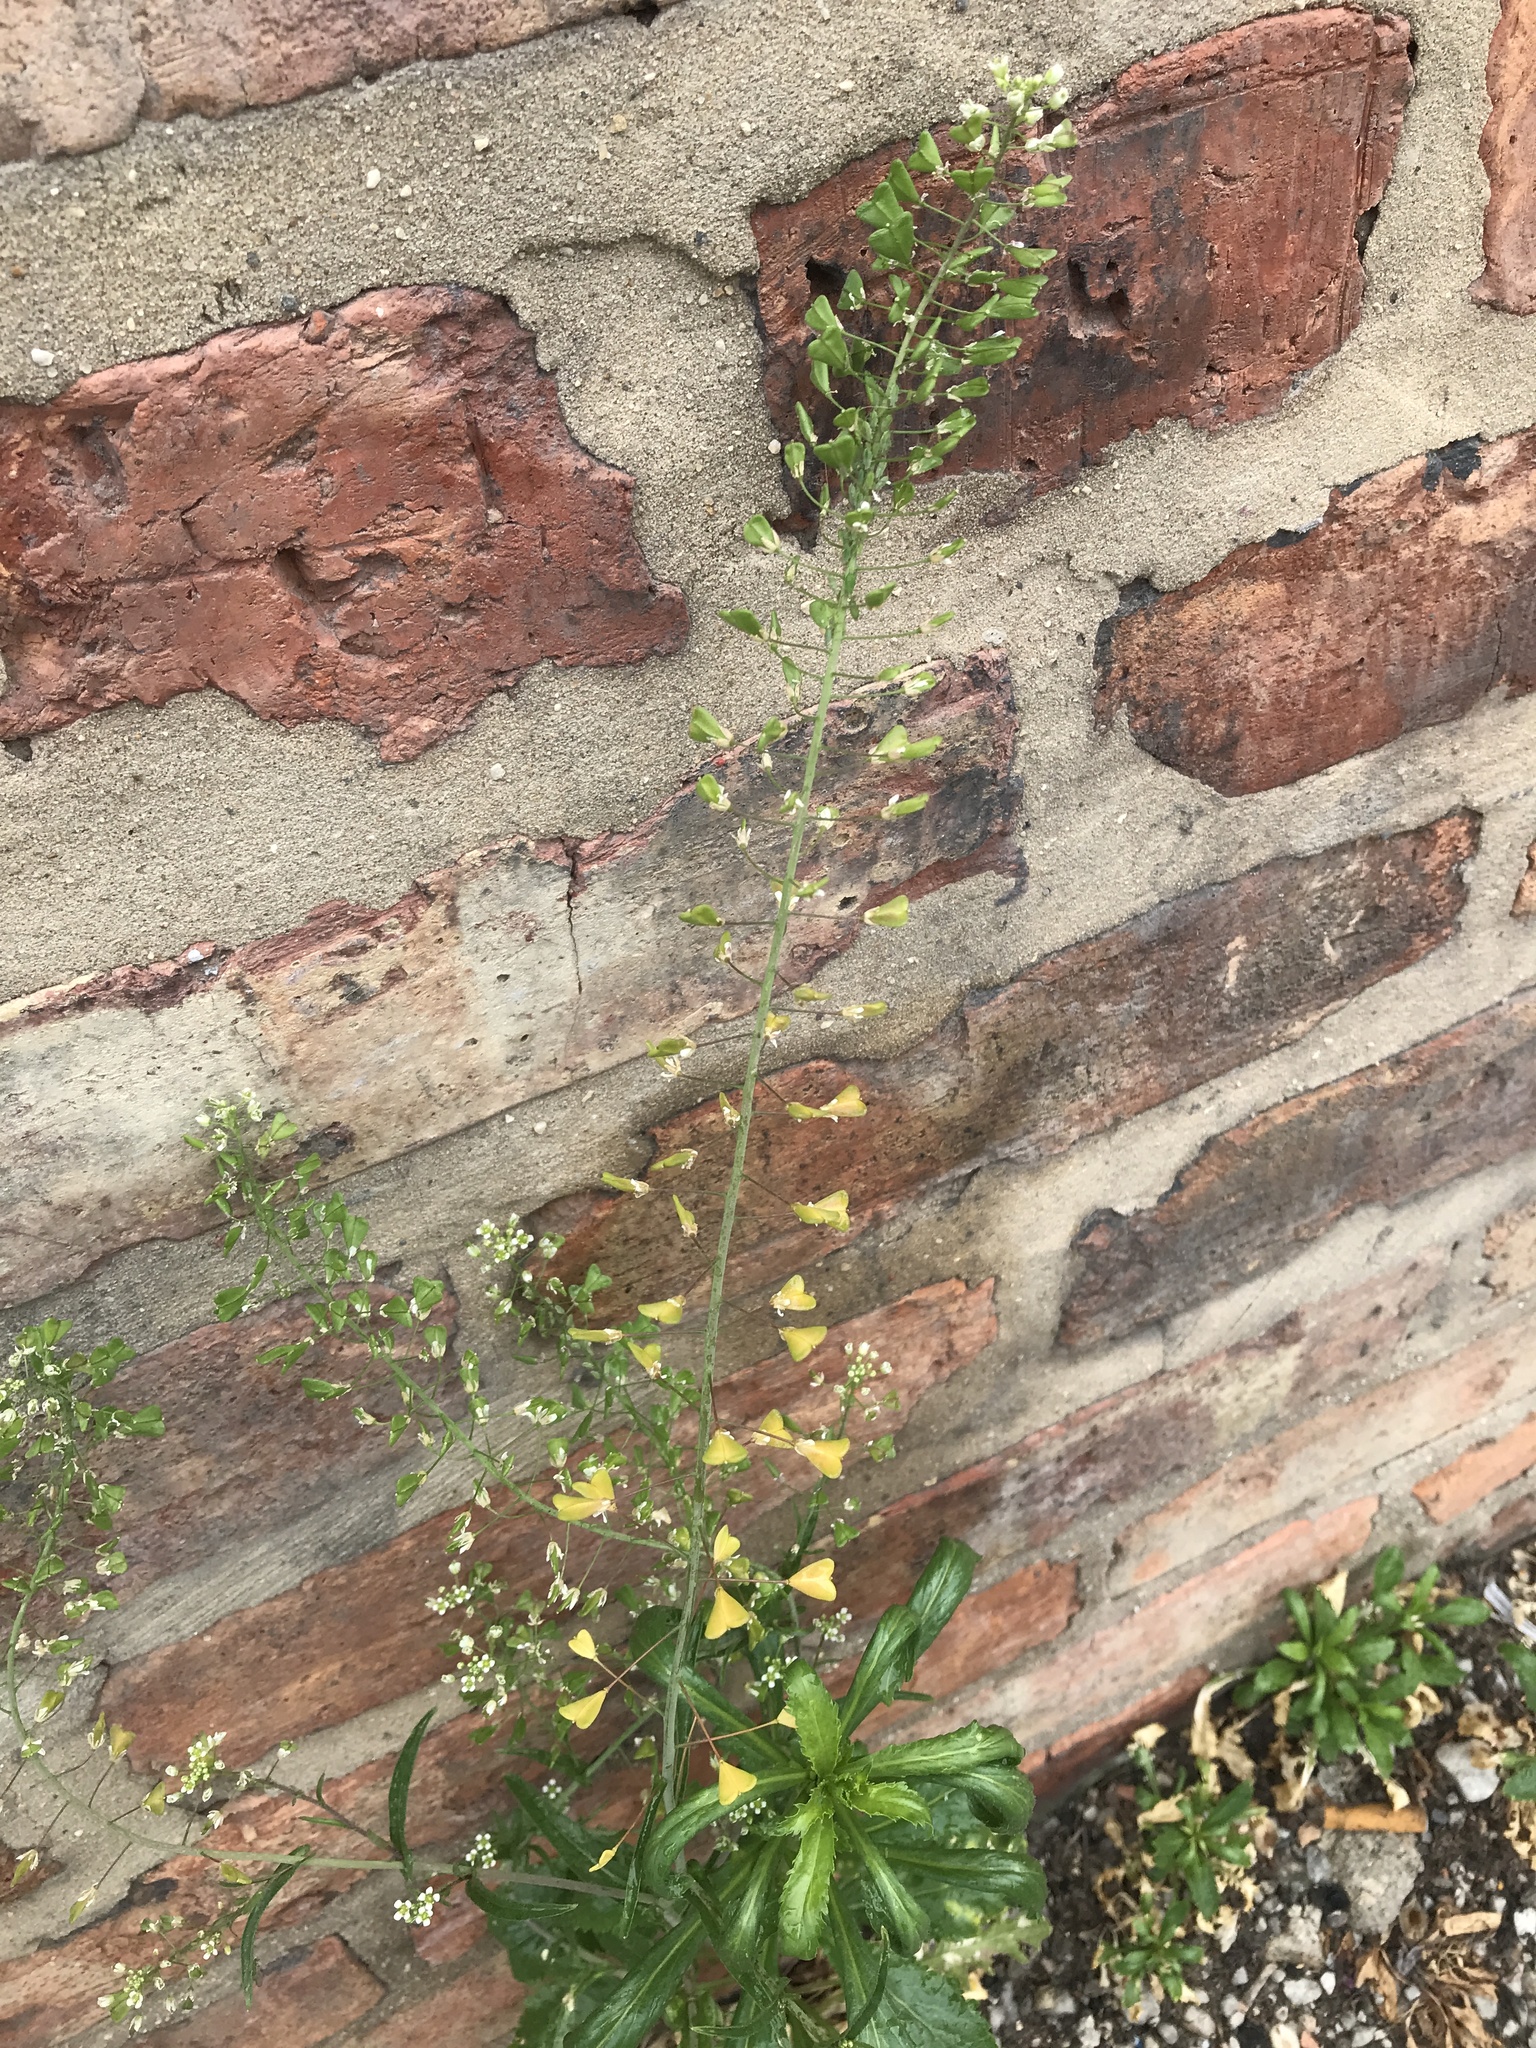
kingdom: Plantae
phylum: Tracheophyta
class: Magnoliopsida
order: Brassicales
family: Brassicaceae
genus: Capsella
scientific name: Capsella bursa-pastoris
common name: Shepherd's purse
